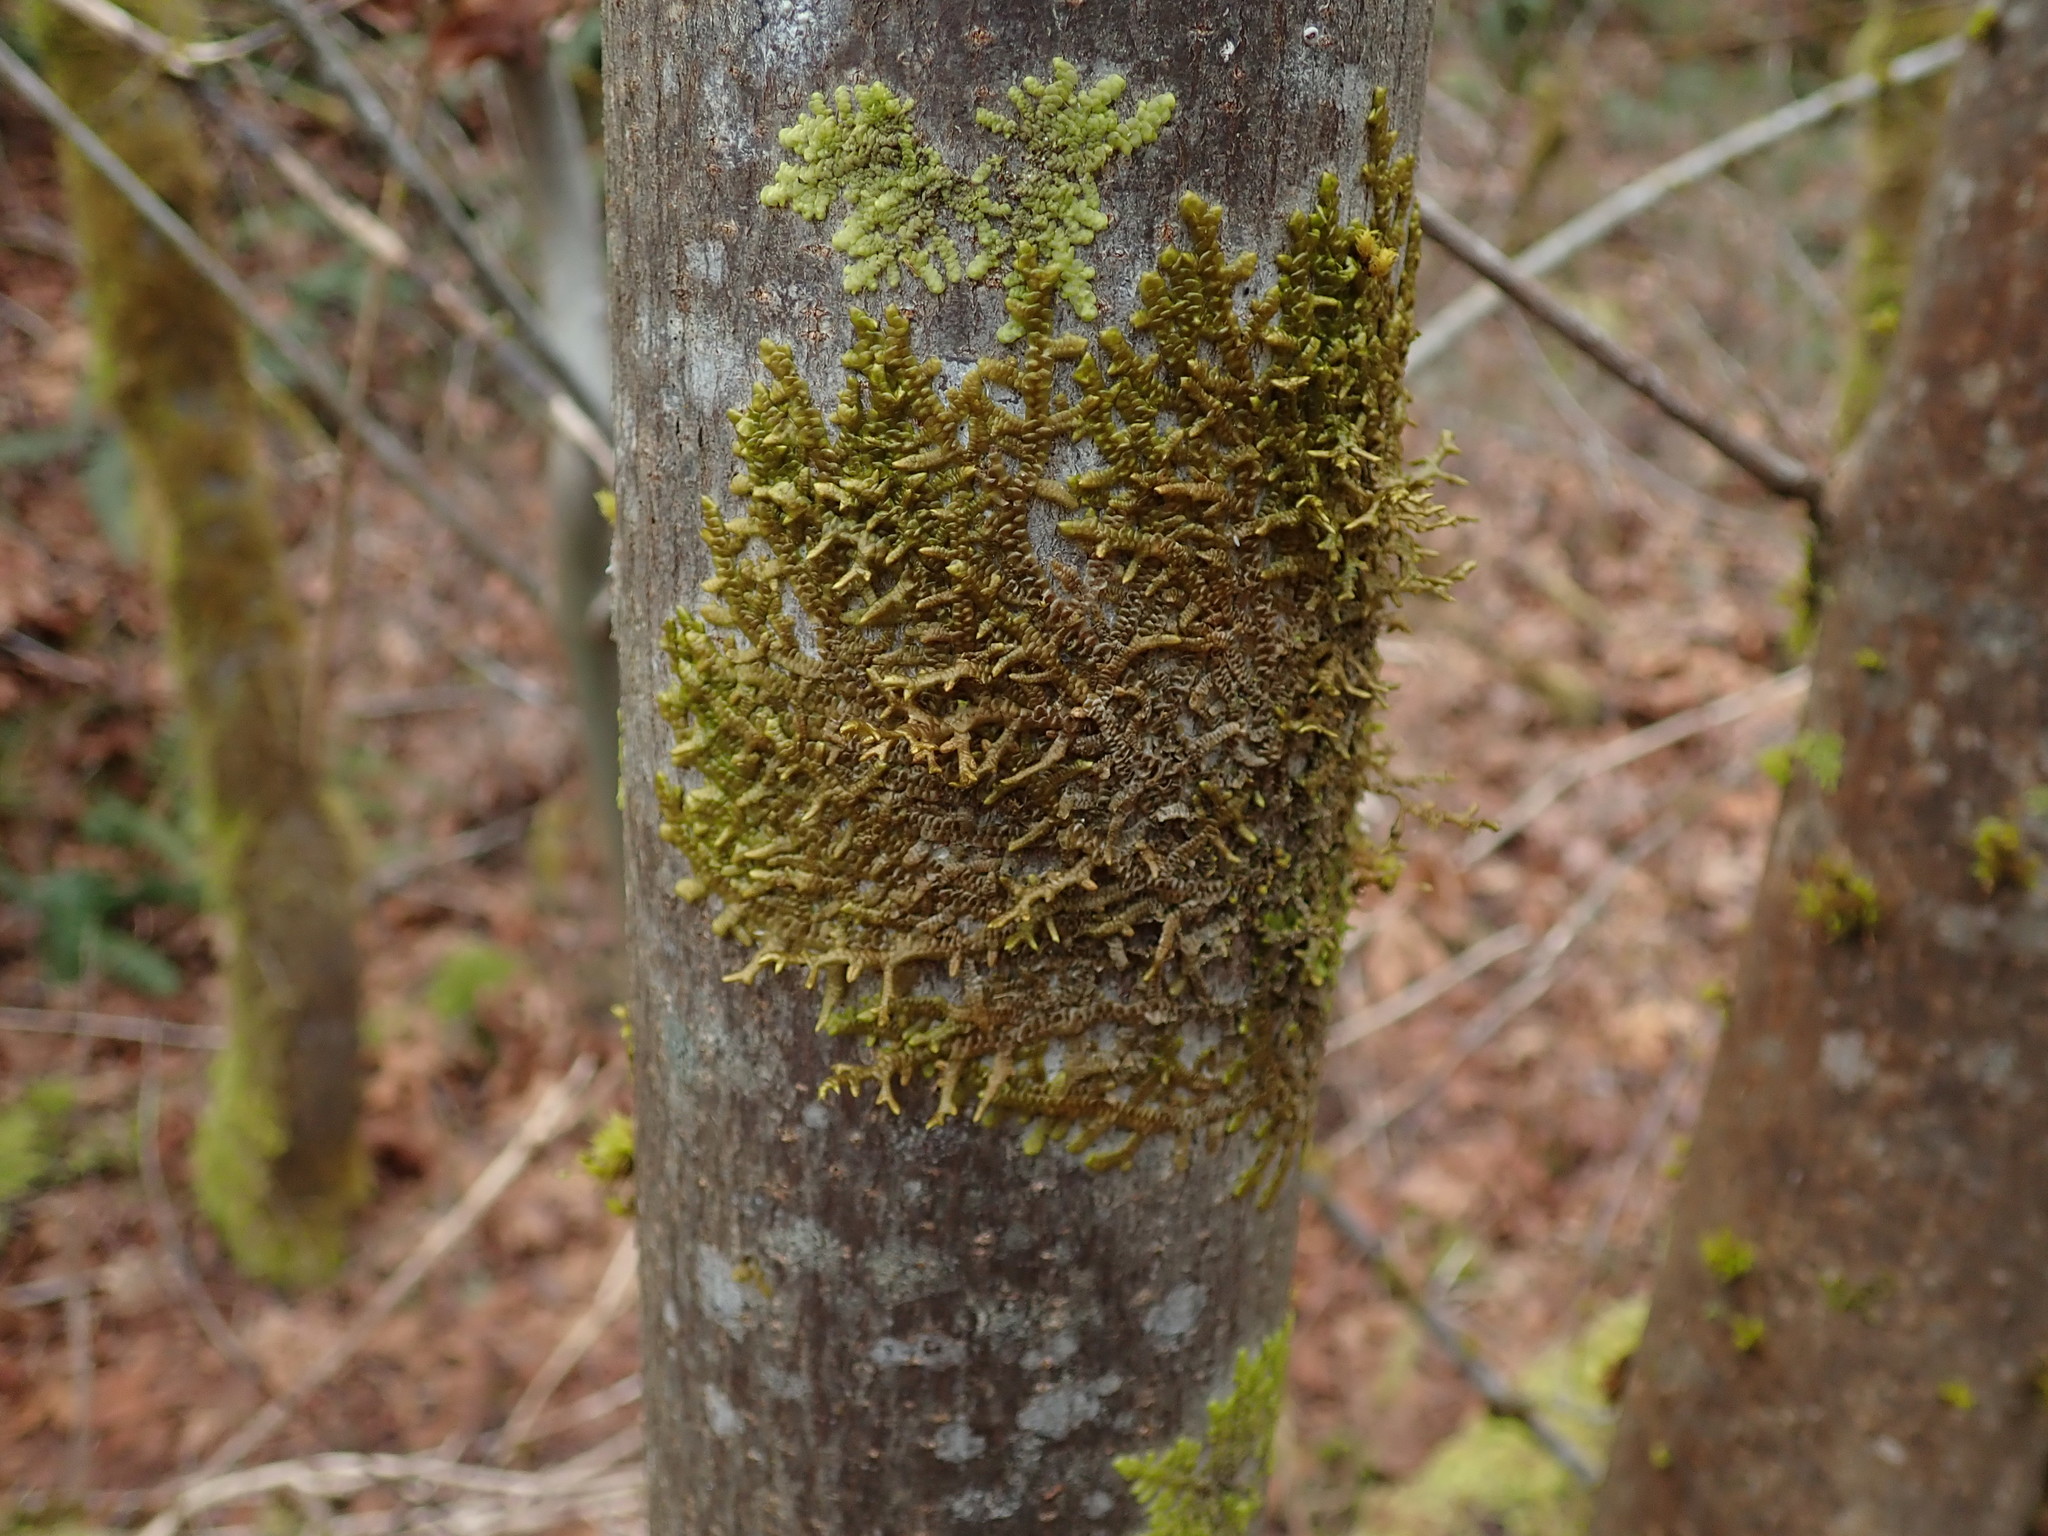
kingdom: Plantae
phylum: Marchantiophyta
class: Jungermanniopsida
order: Porellales
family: Porellaceae
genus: Porella
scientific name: Porella navicularis
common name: Tree ruffle liverwort
